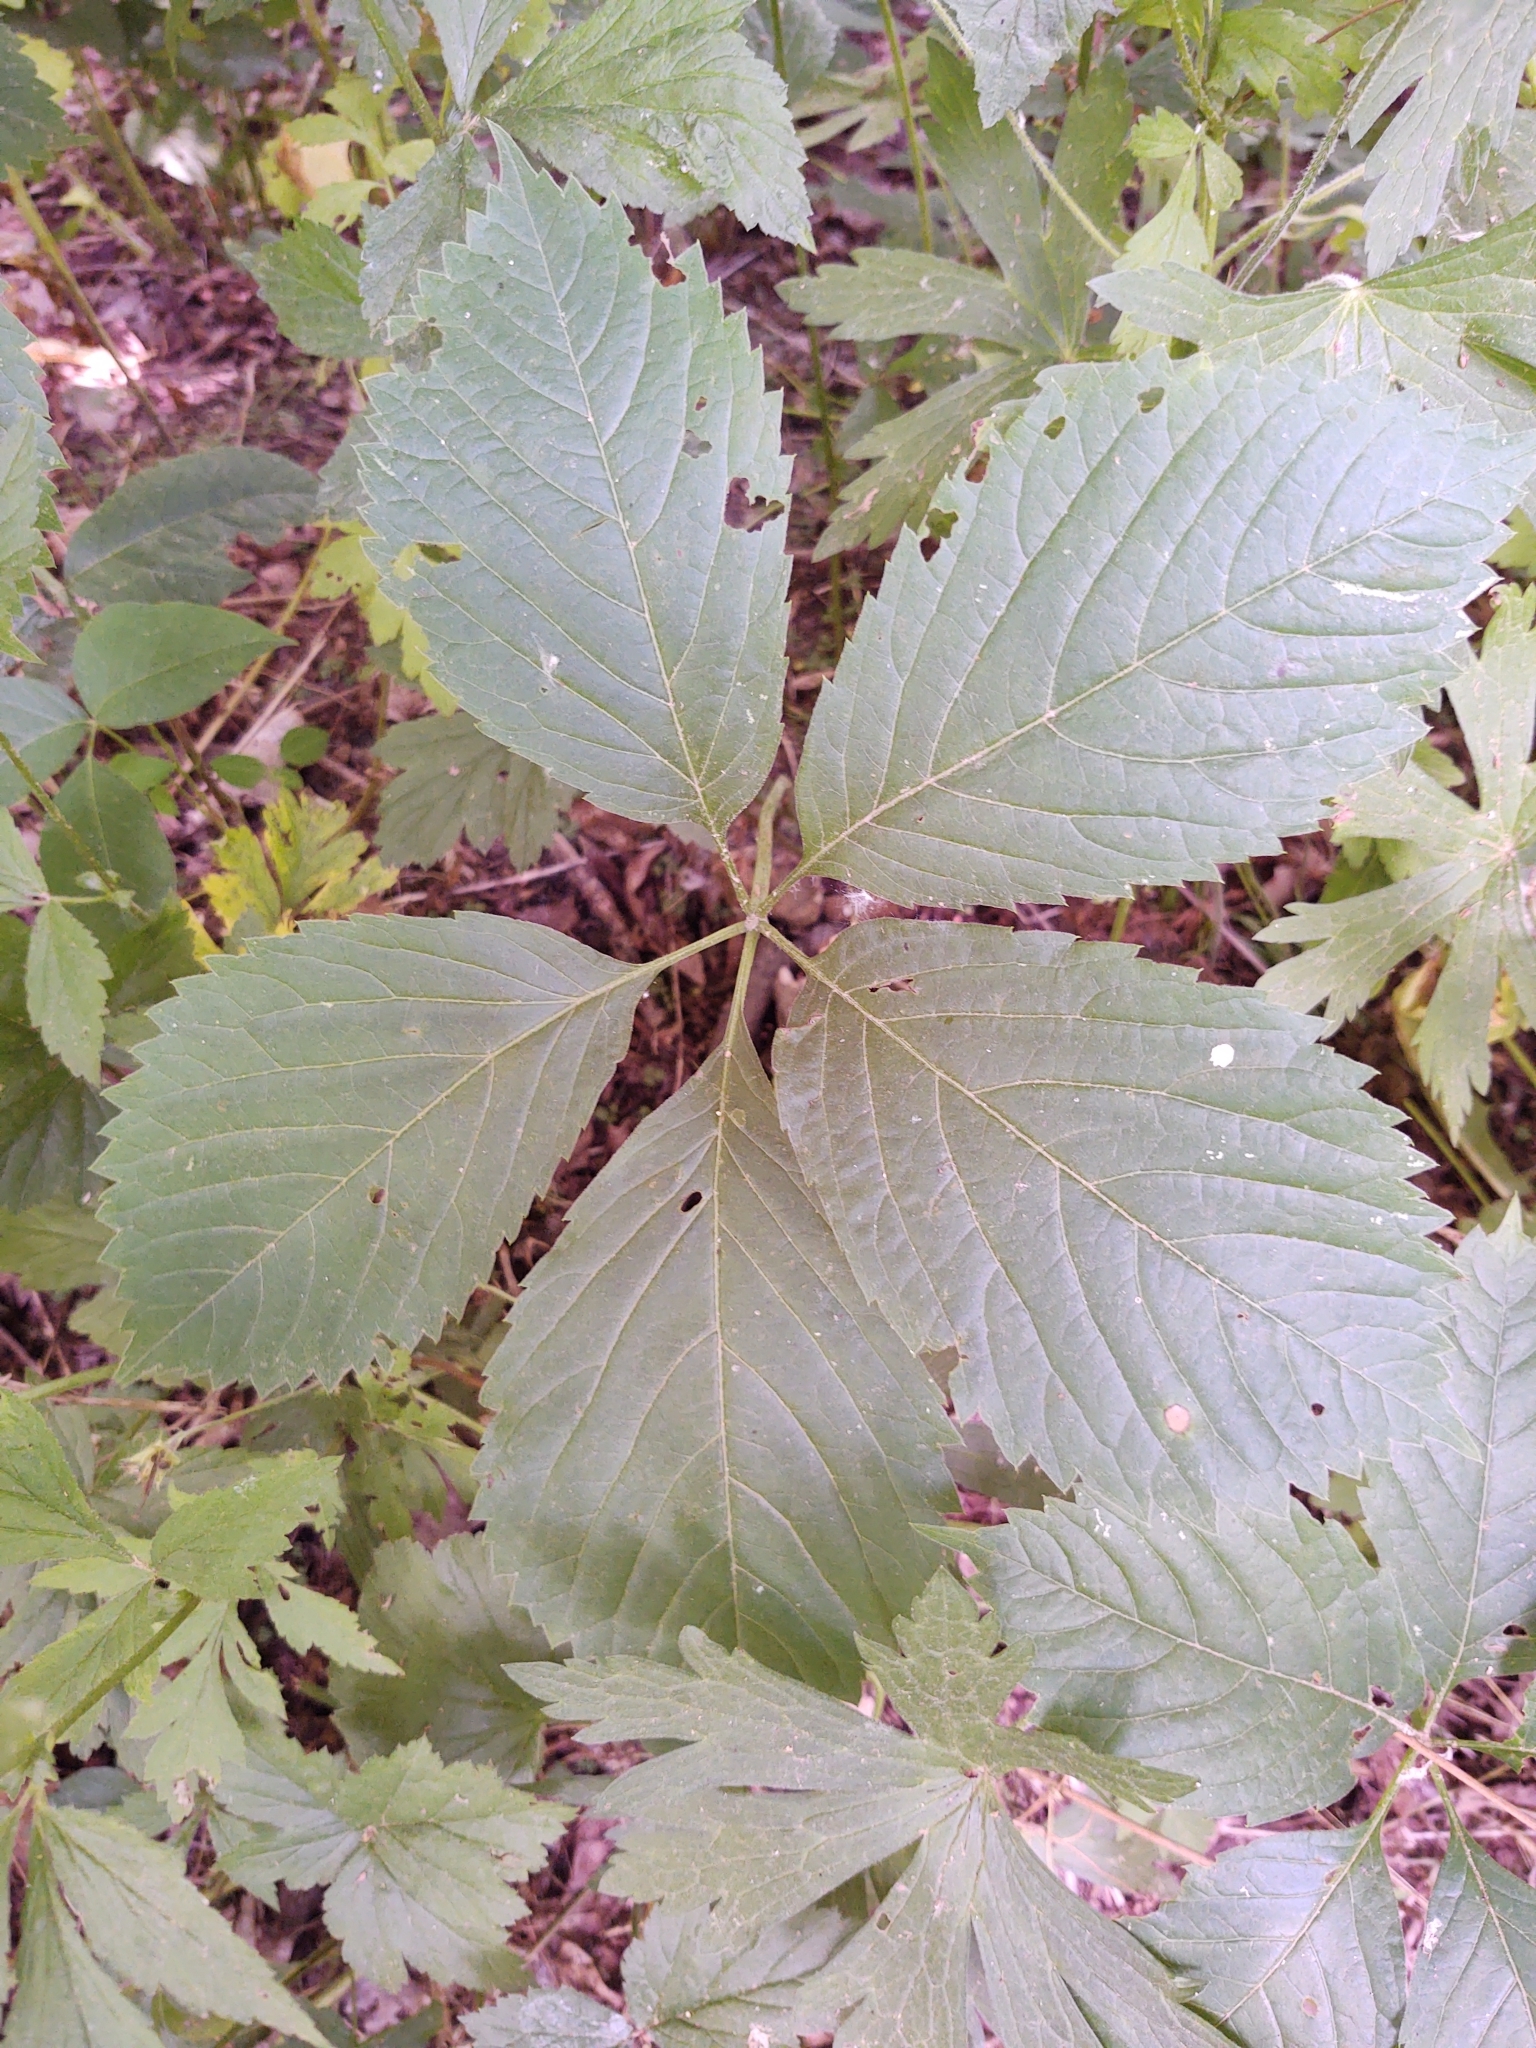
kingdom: Plantae
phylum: Tracheophyta
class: Magnoliopsida
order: Vitales
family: Vitaceae
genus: Parthenocissus
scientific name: Parthenocissus inserta
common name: False virginia-creeper
